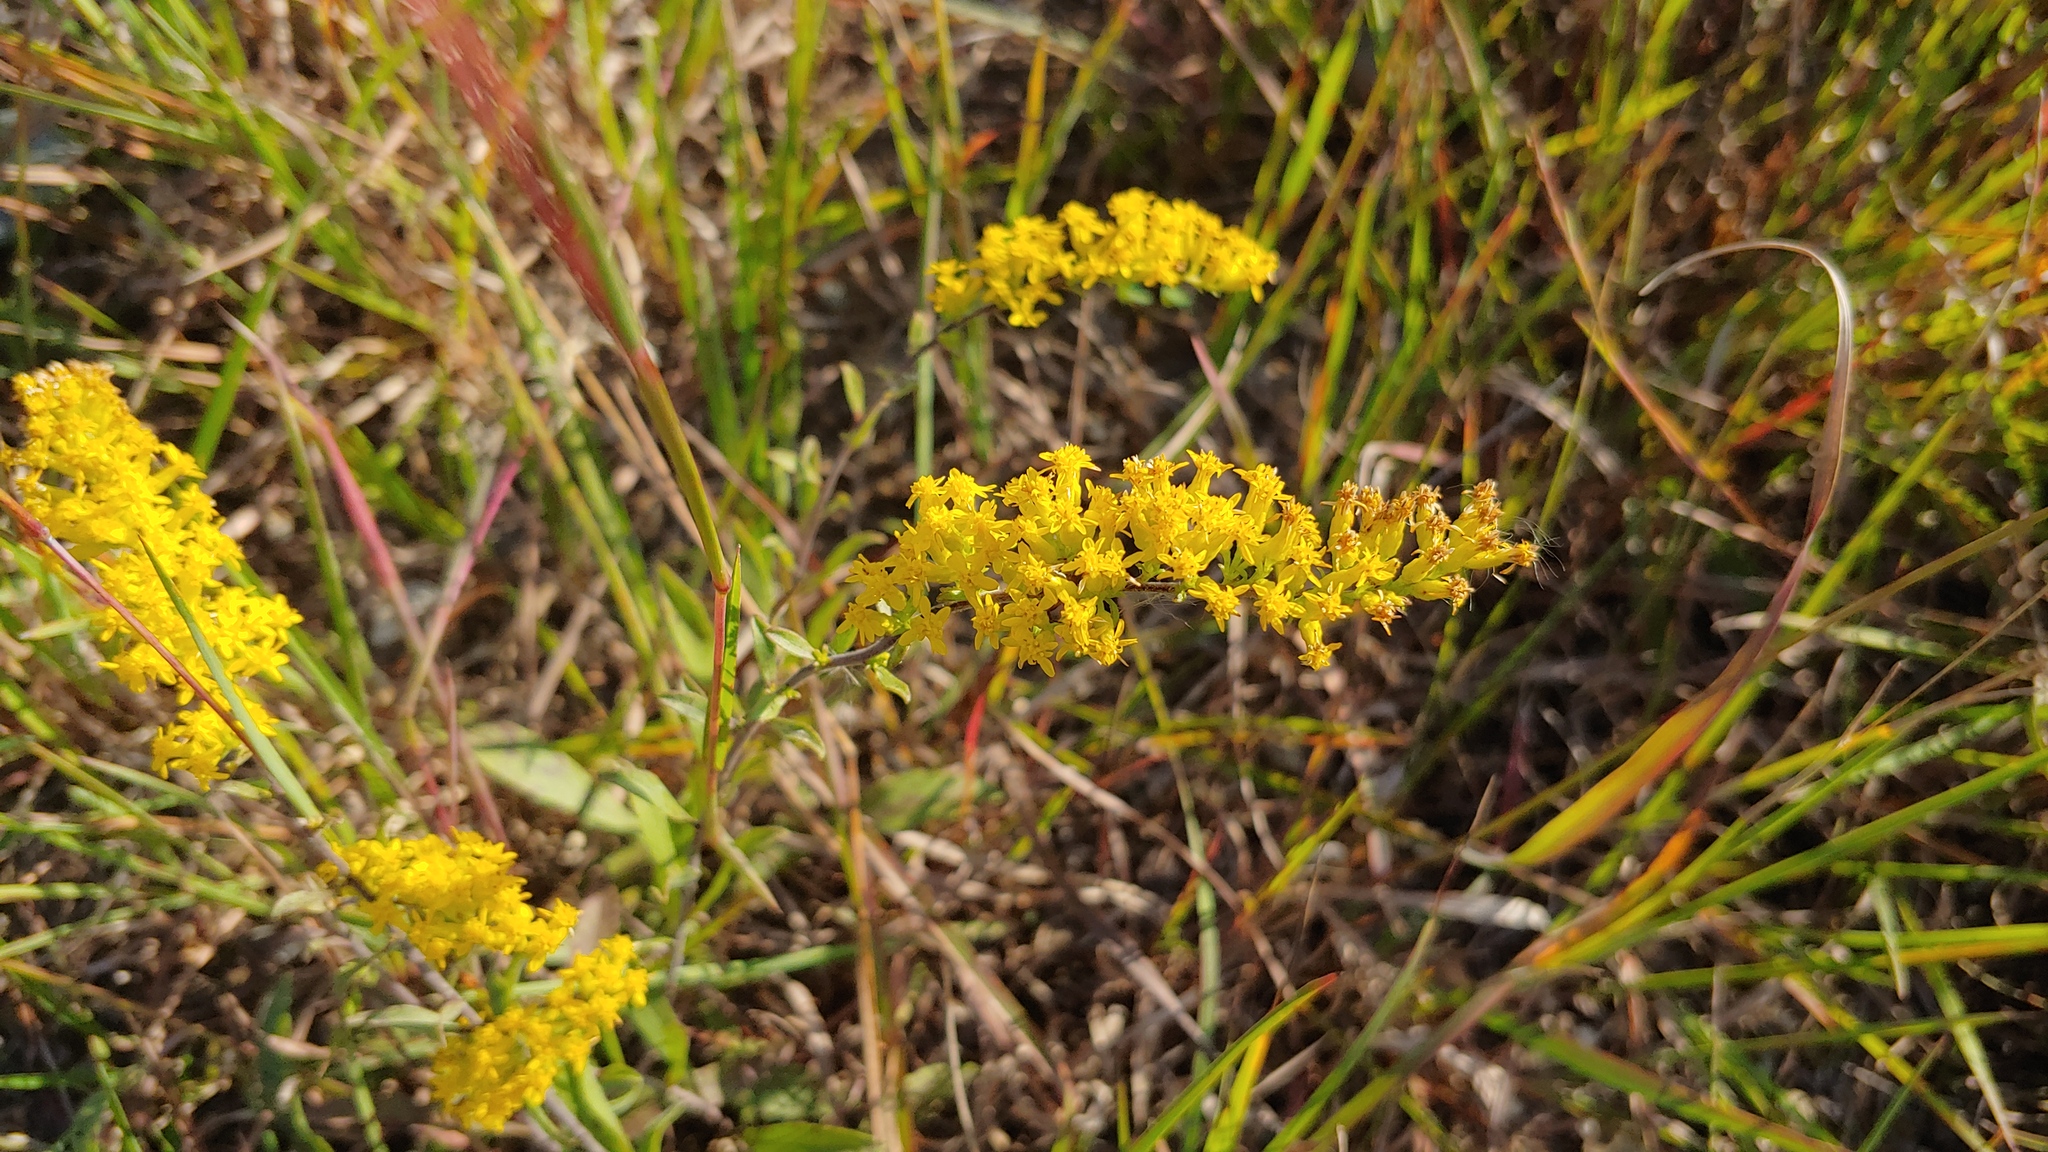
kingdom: Plantae
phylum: Tracheophyta
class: Magnoliopsida
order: Asterales
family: Asteraceae
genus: Solidago
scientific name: Solidago nemoralis
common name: Grey goldenrod
